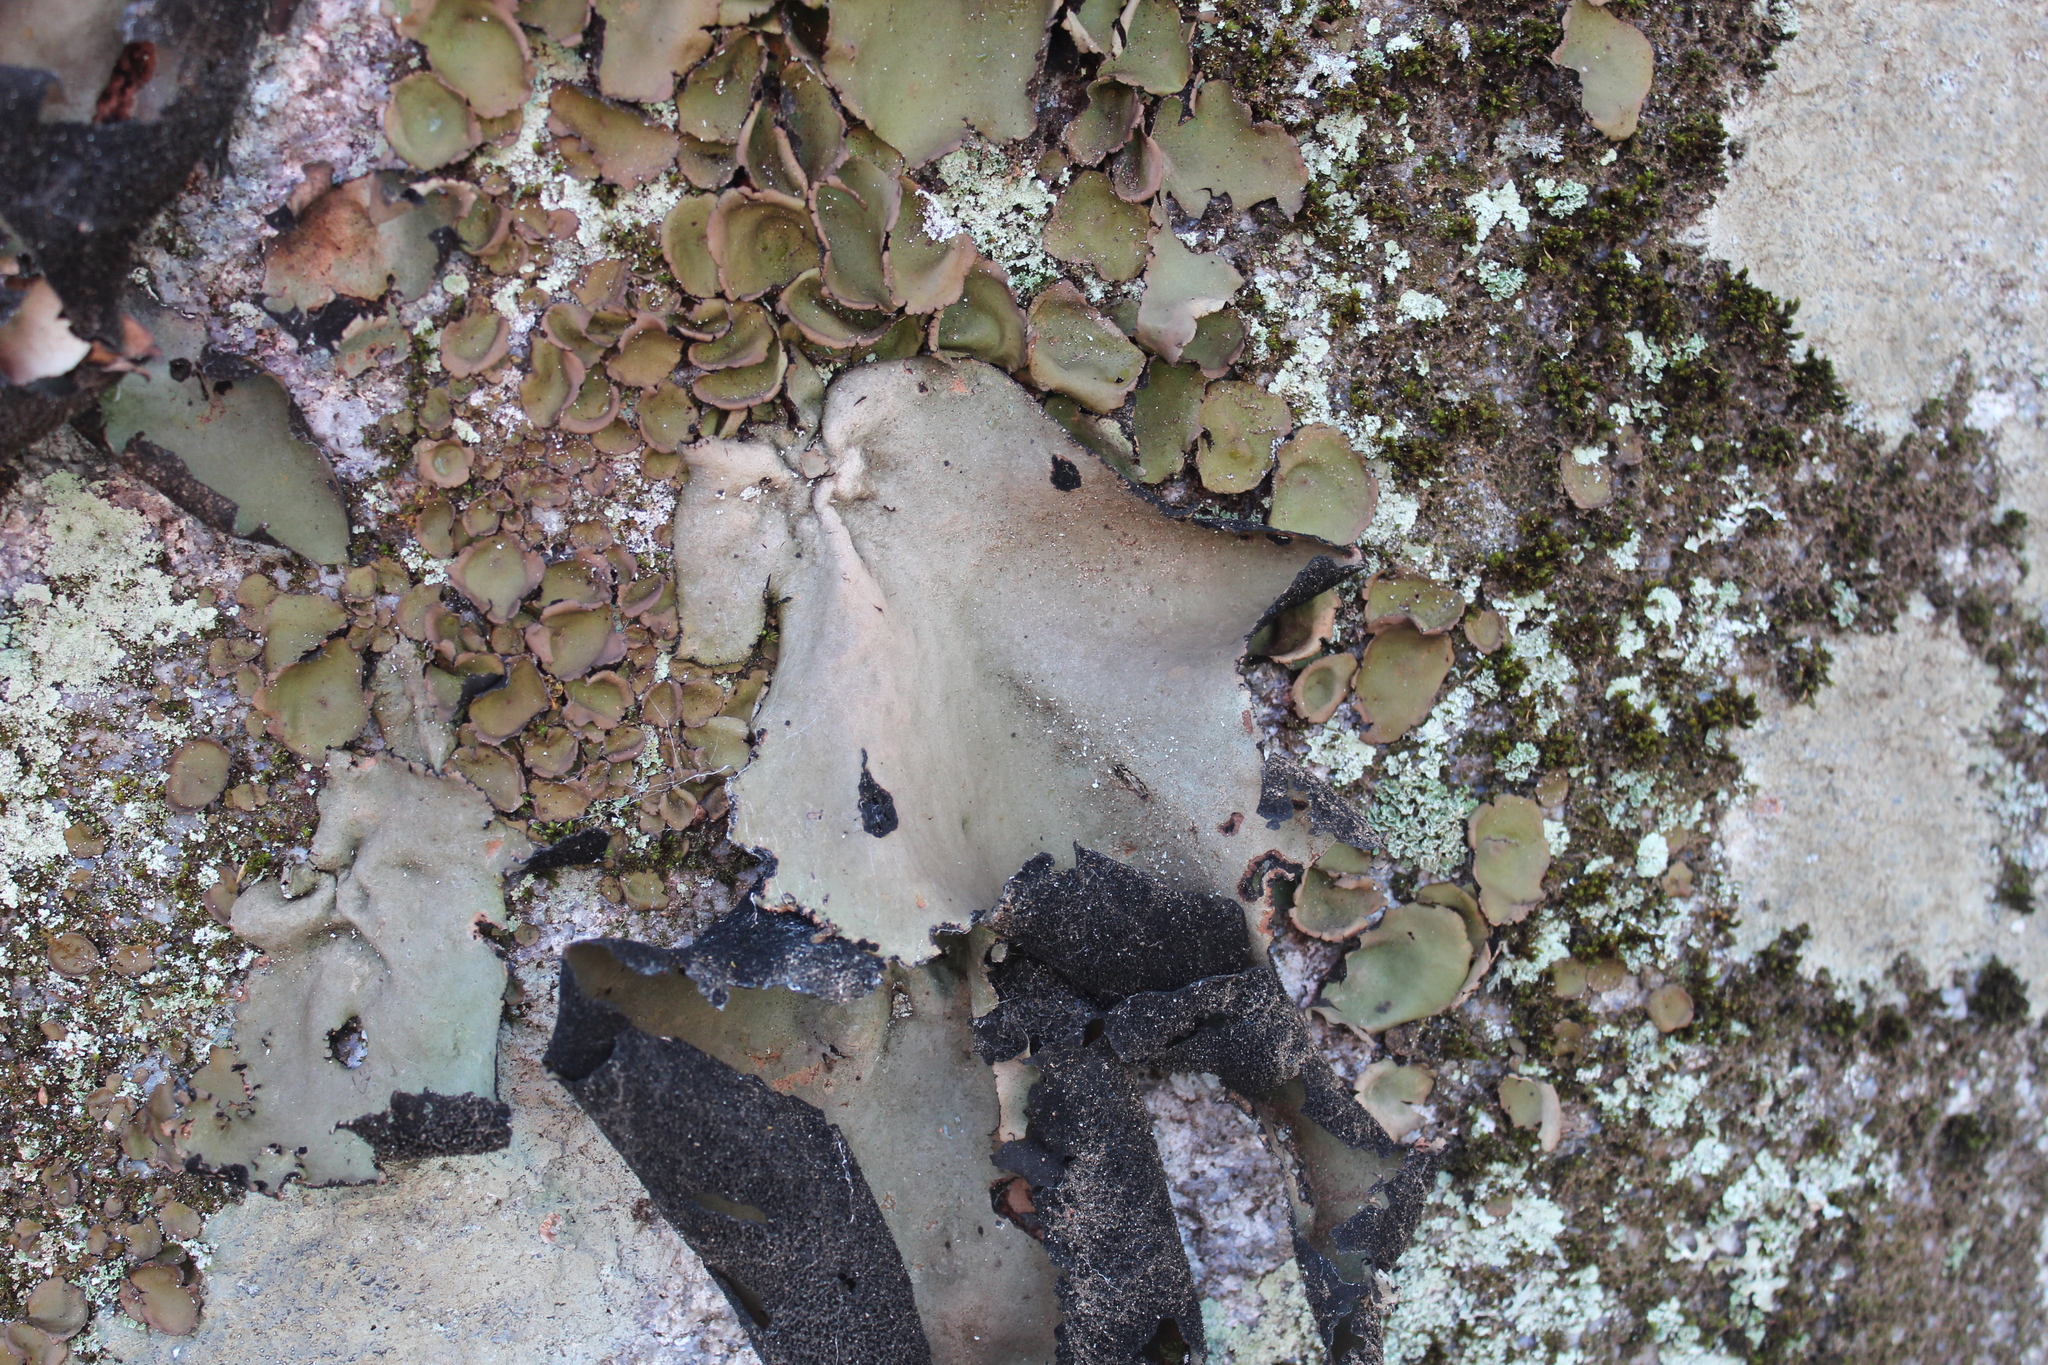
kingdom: Fungi
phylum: Ascomycota
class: Lecanoromycetes
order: Umbilicariales
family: Umbilicariaceae
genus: Umbilicaria
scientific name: Umbilicaria mammulata
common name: Smooth rock tripe
